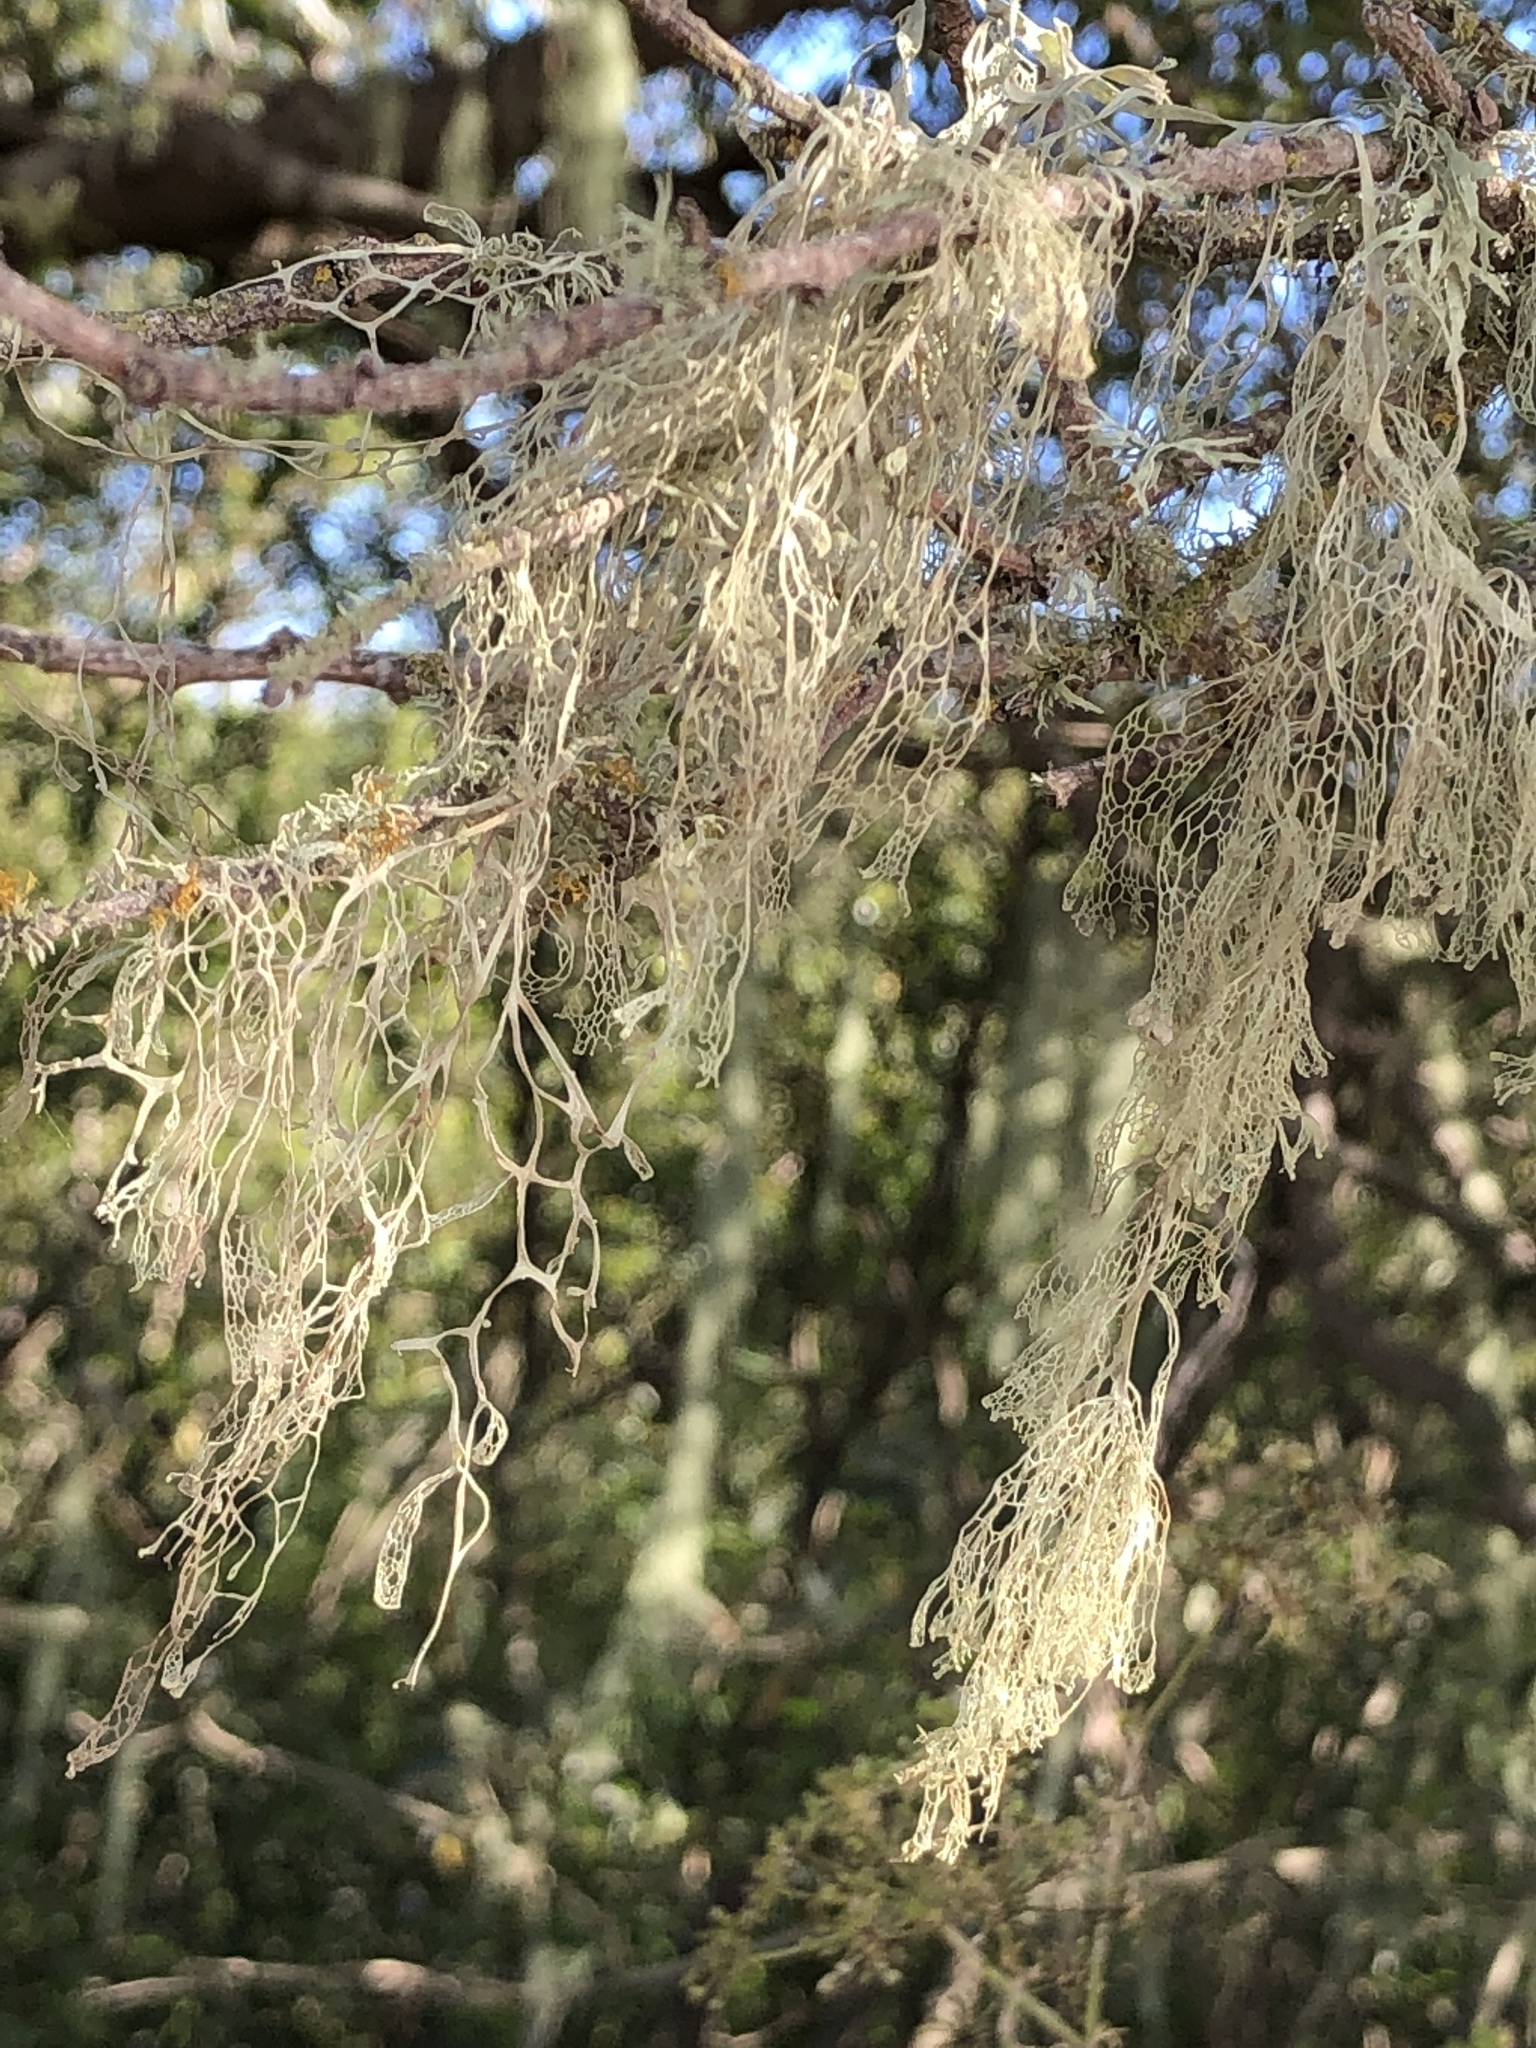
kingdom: Fungi
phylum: Ascomycota
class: Lecanoromycetes
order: Lecanorales
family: Ramalinaceae
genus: Ramalina
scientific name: Ramalina menziesii
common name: Lace lichen
